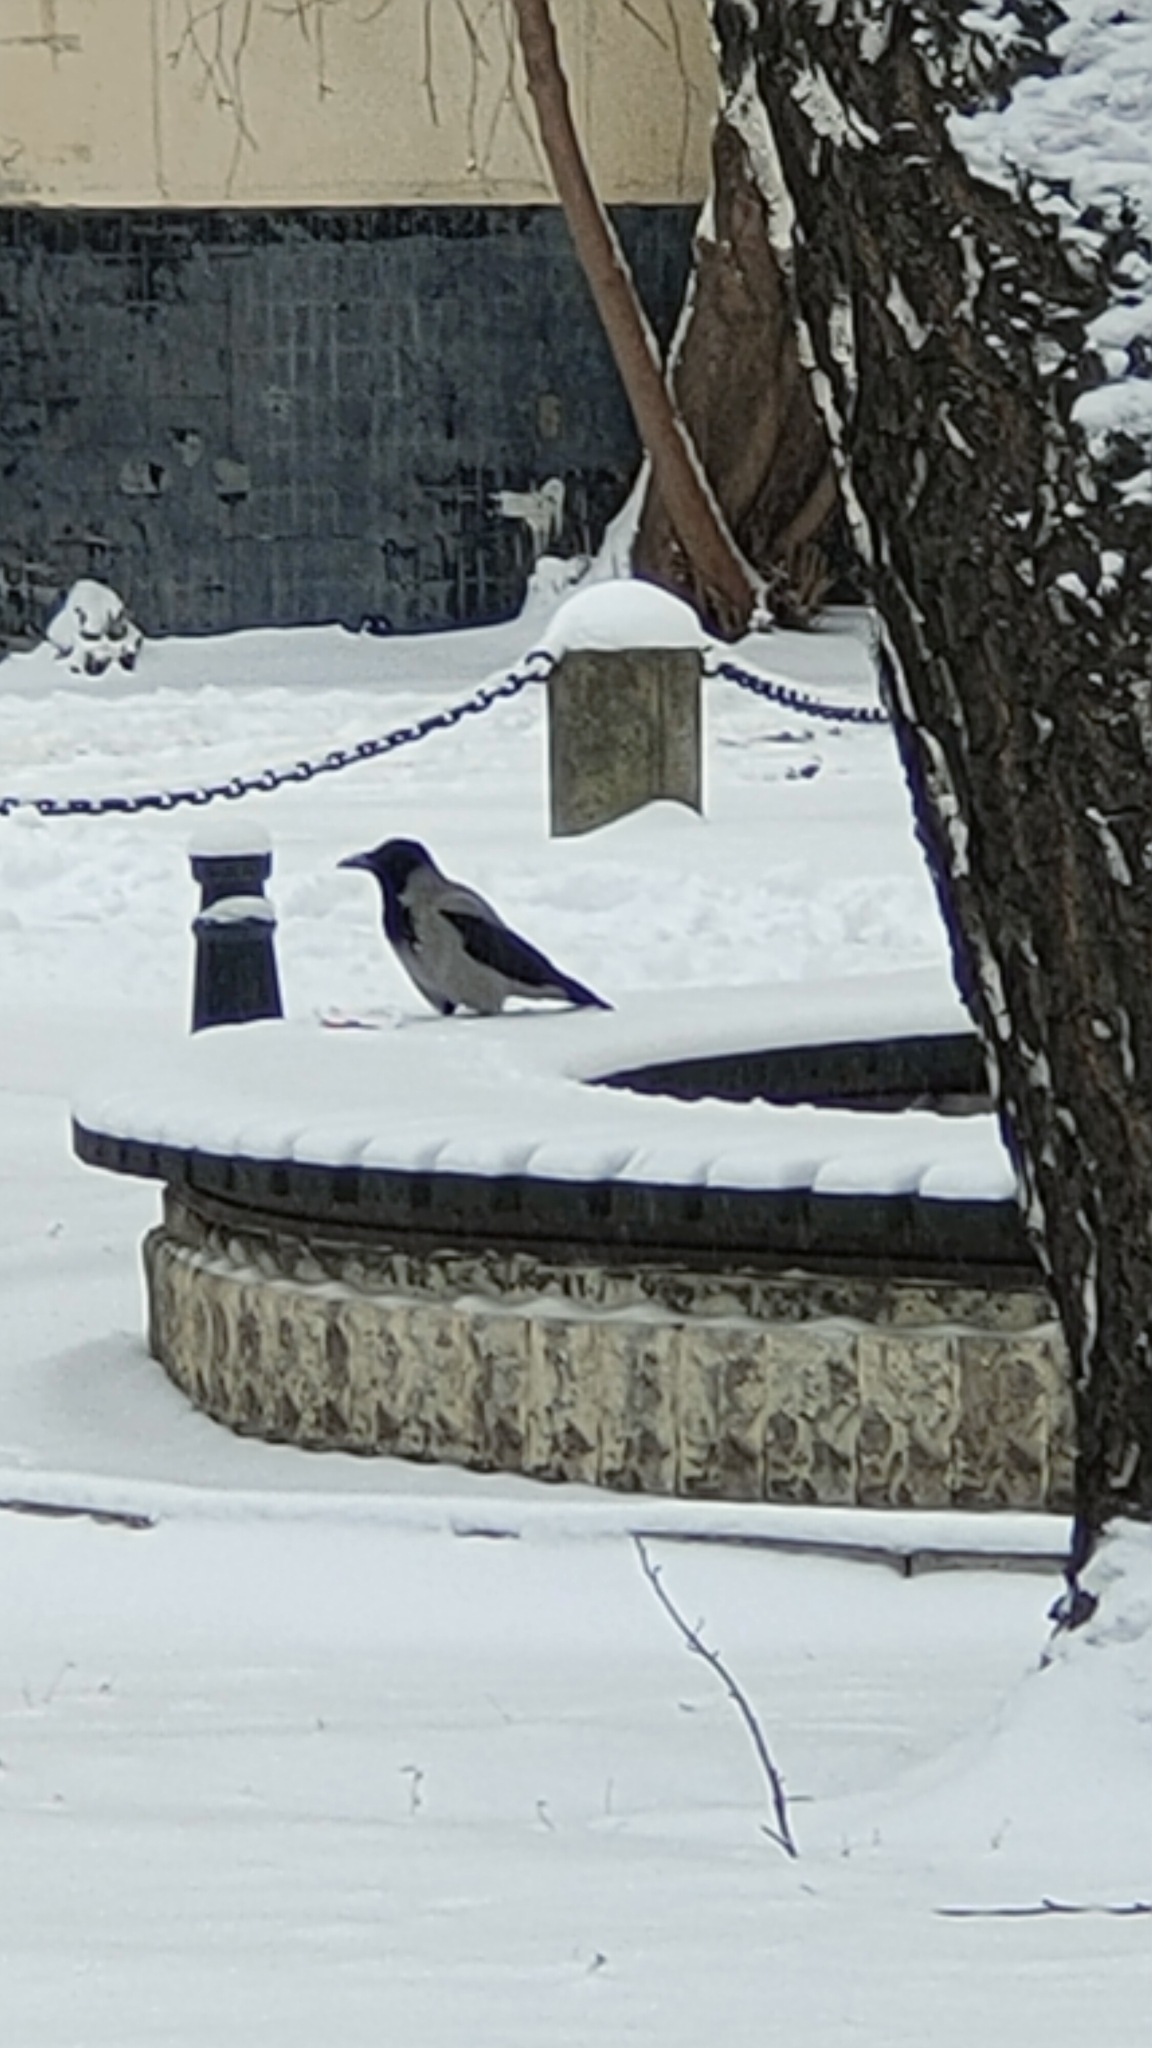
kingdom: Animalia
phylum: Chordata
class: Aves
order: Passeriformes
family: Corvidae
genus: Corvus
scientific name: Corvus cornix
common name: Hooded crow
